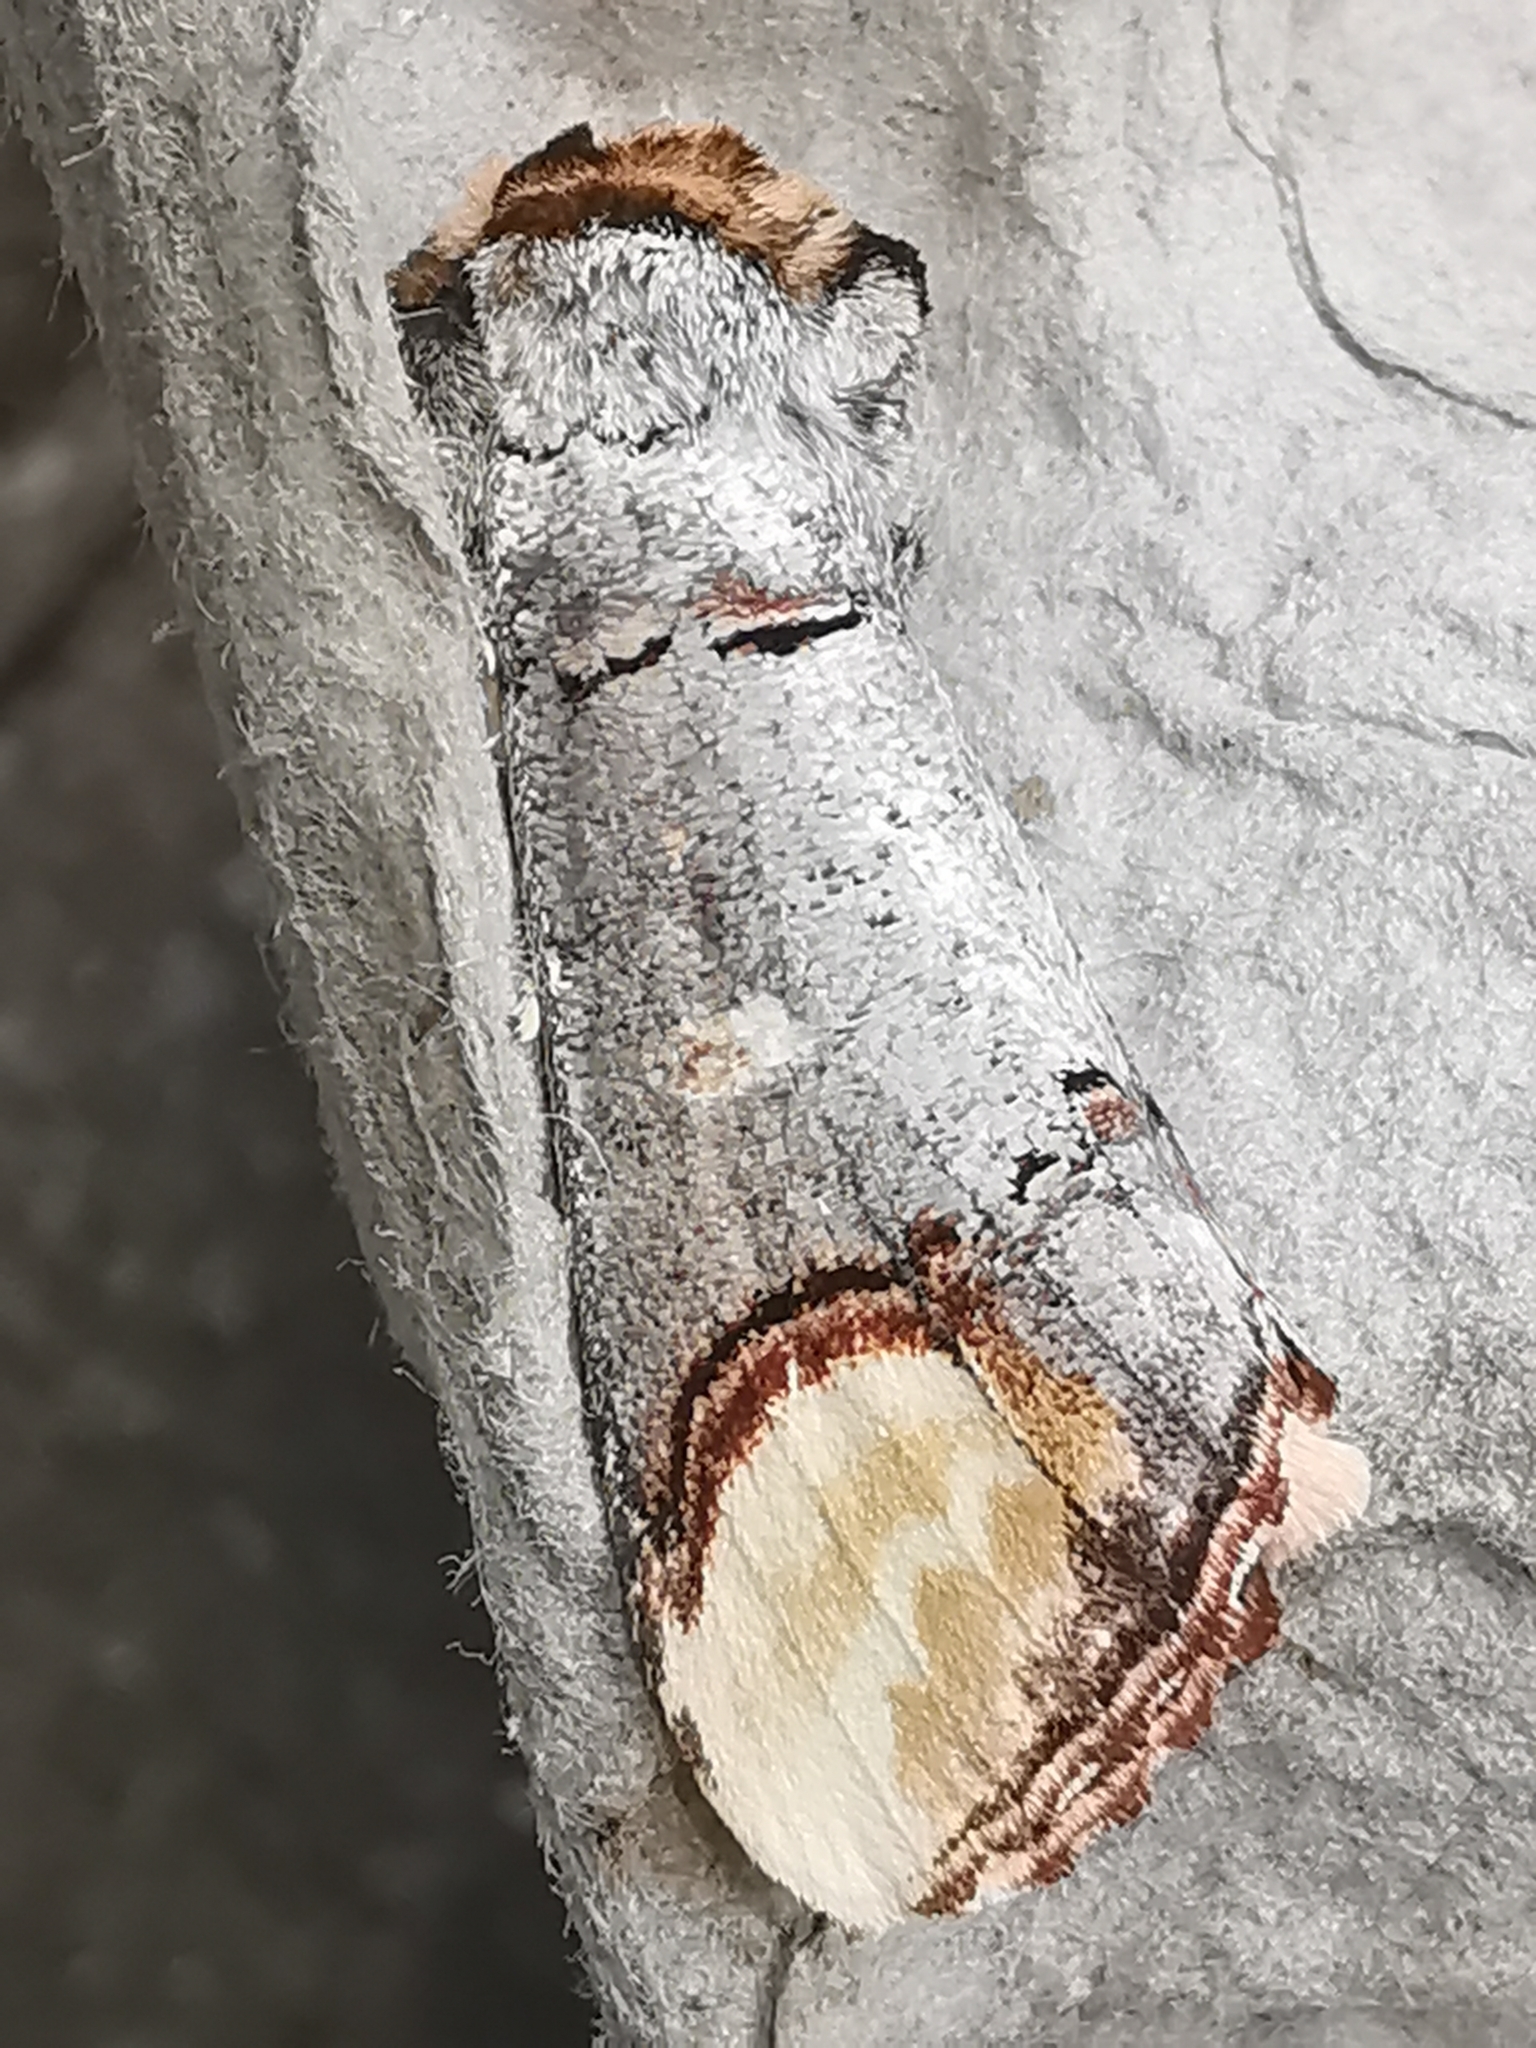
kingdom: Animalia
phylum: Arthropoda
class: Insecta
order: Lepidoptera
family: Notodontidae
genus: Phalera
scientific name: Phalera bucephala
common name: Buff-tip
